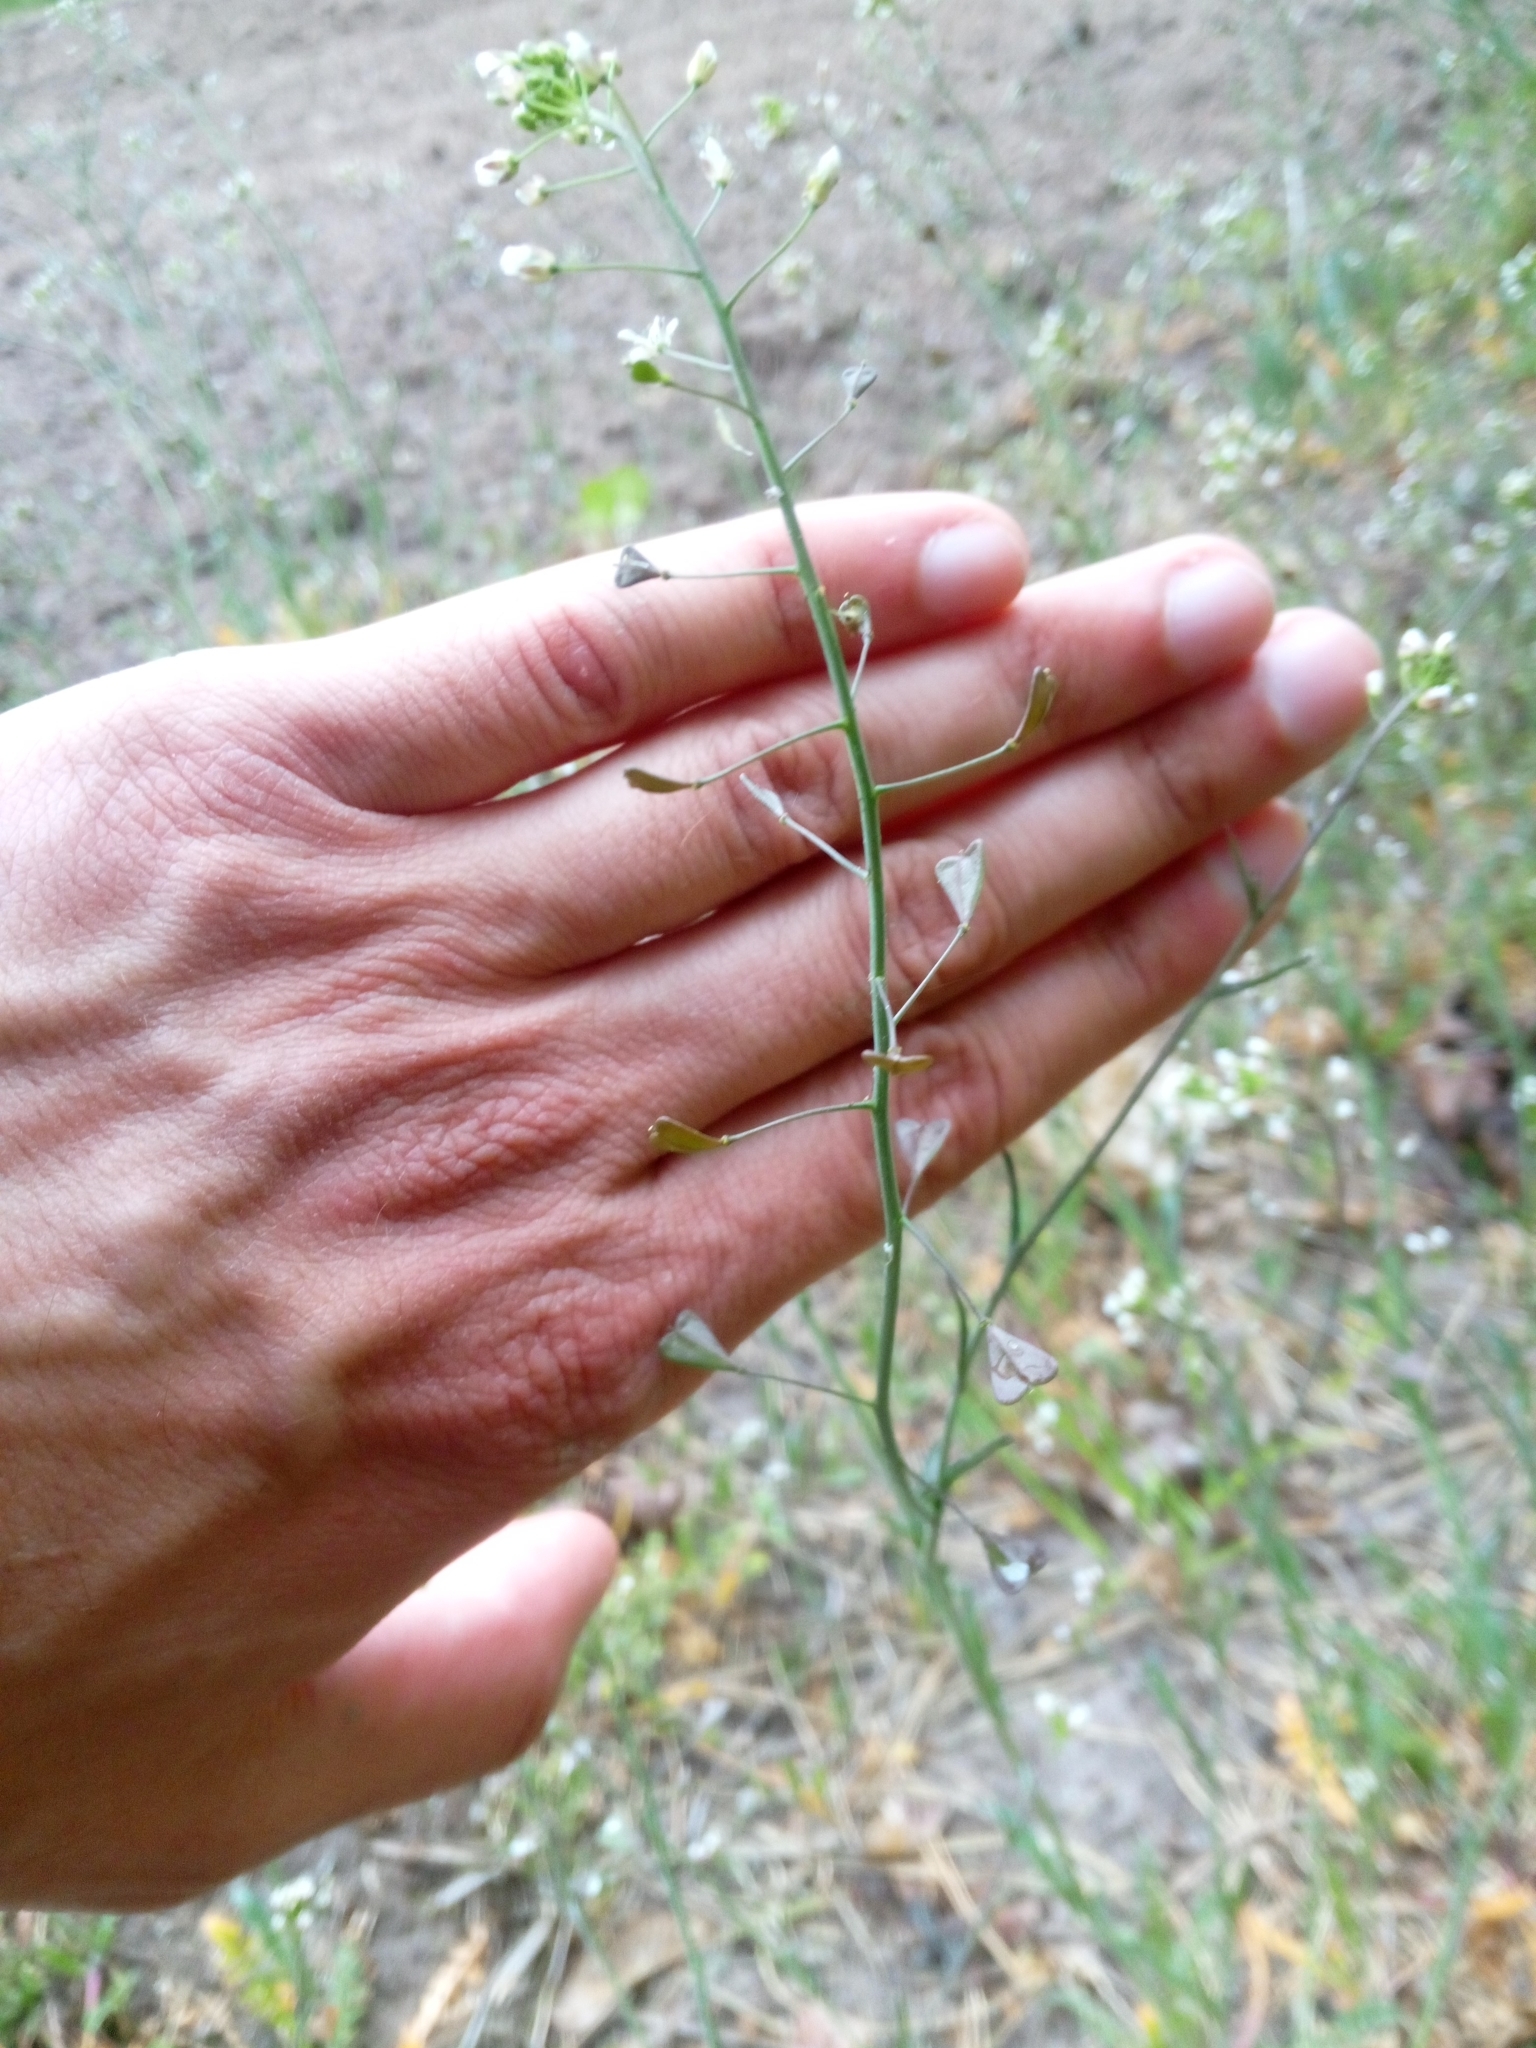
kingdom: Plantae
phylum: Tracheophyta
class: Magnoliopsida
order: Brassicales
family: Brassicaceae
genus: Capsella
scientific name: Capsella bursa-pastoris
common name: Shepherd's purse
